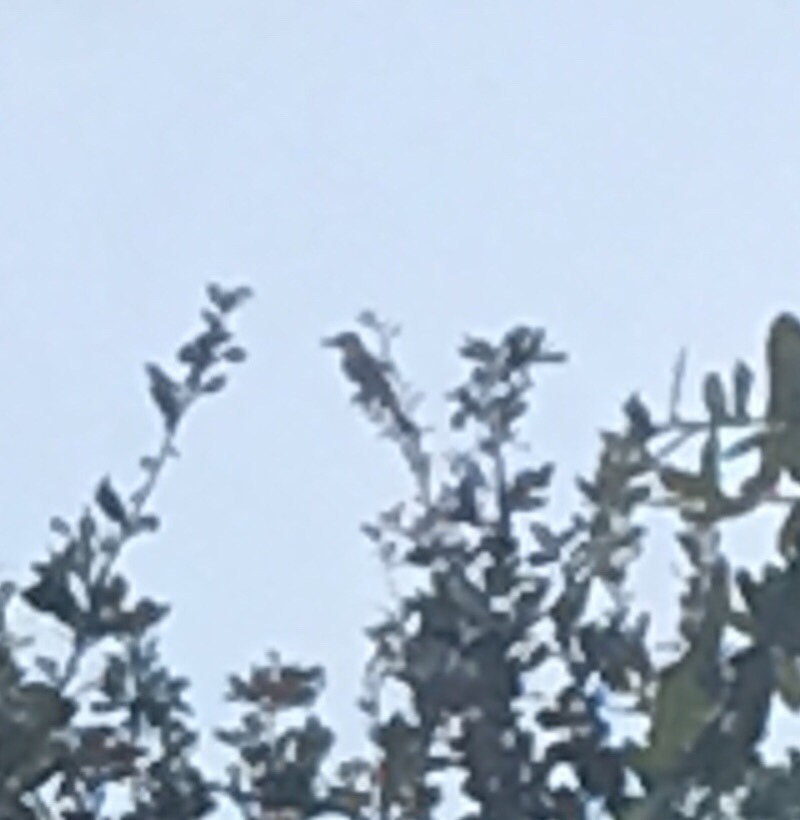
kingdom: Animalia
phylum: Chordata
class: Aves
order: Passeriformes
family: Tyrannidae
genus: Tyrannus
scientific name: Tyrannus dominicensis
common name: Gray kingbird
